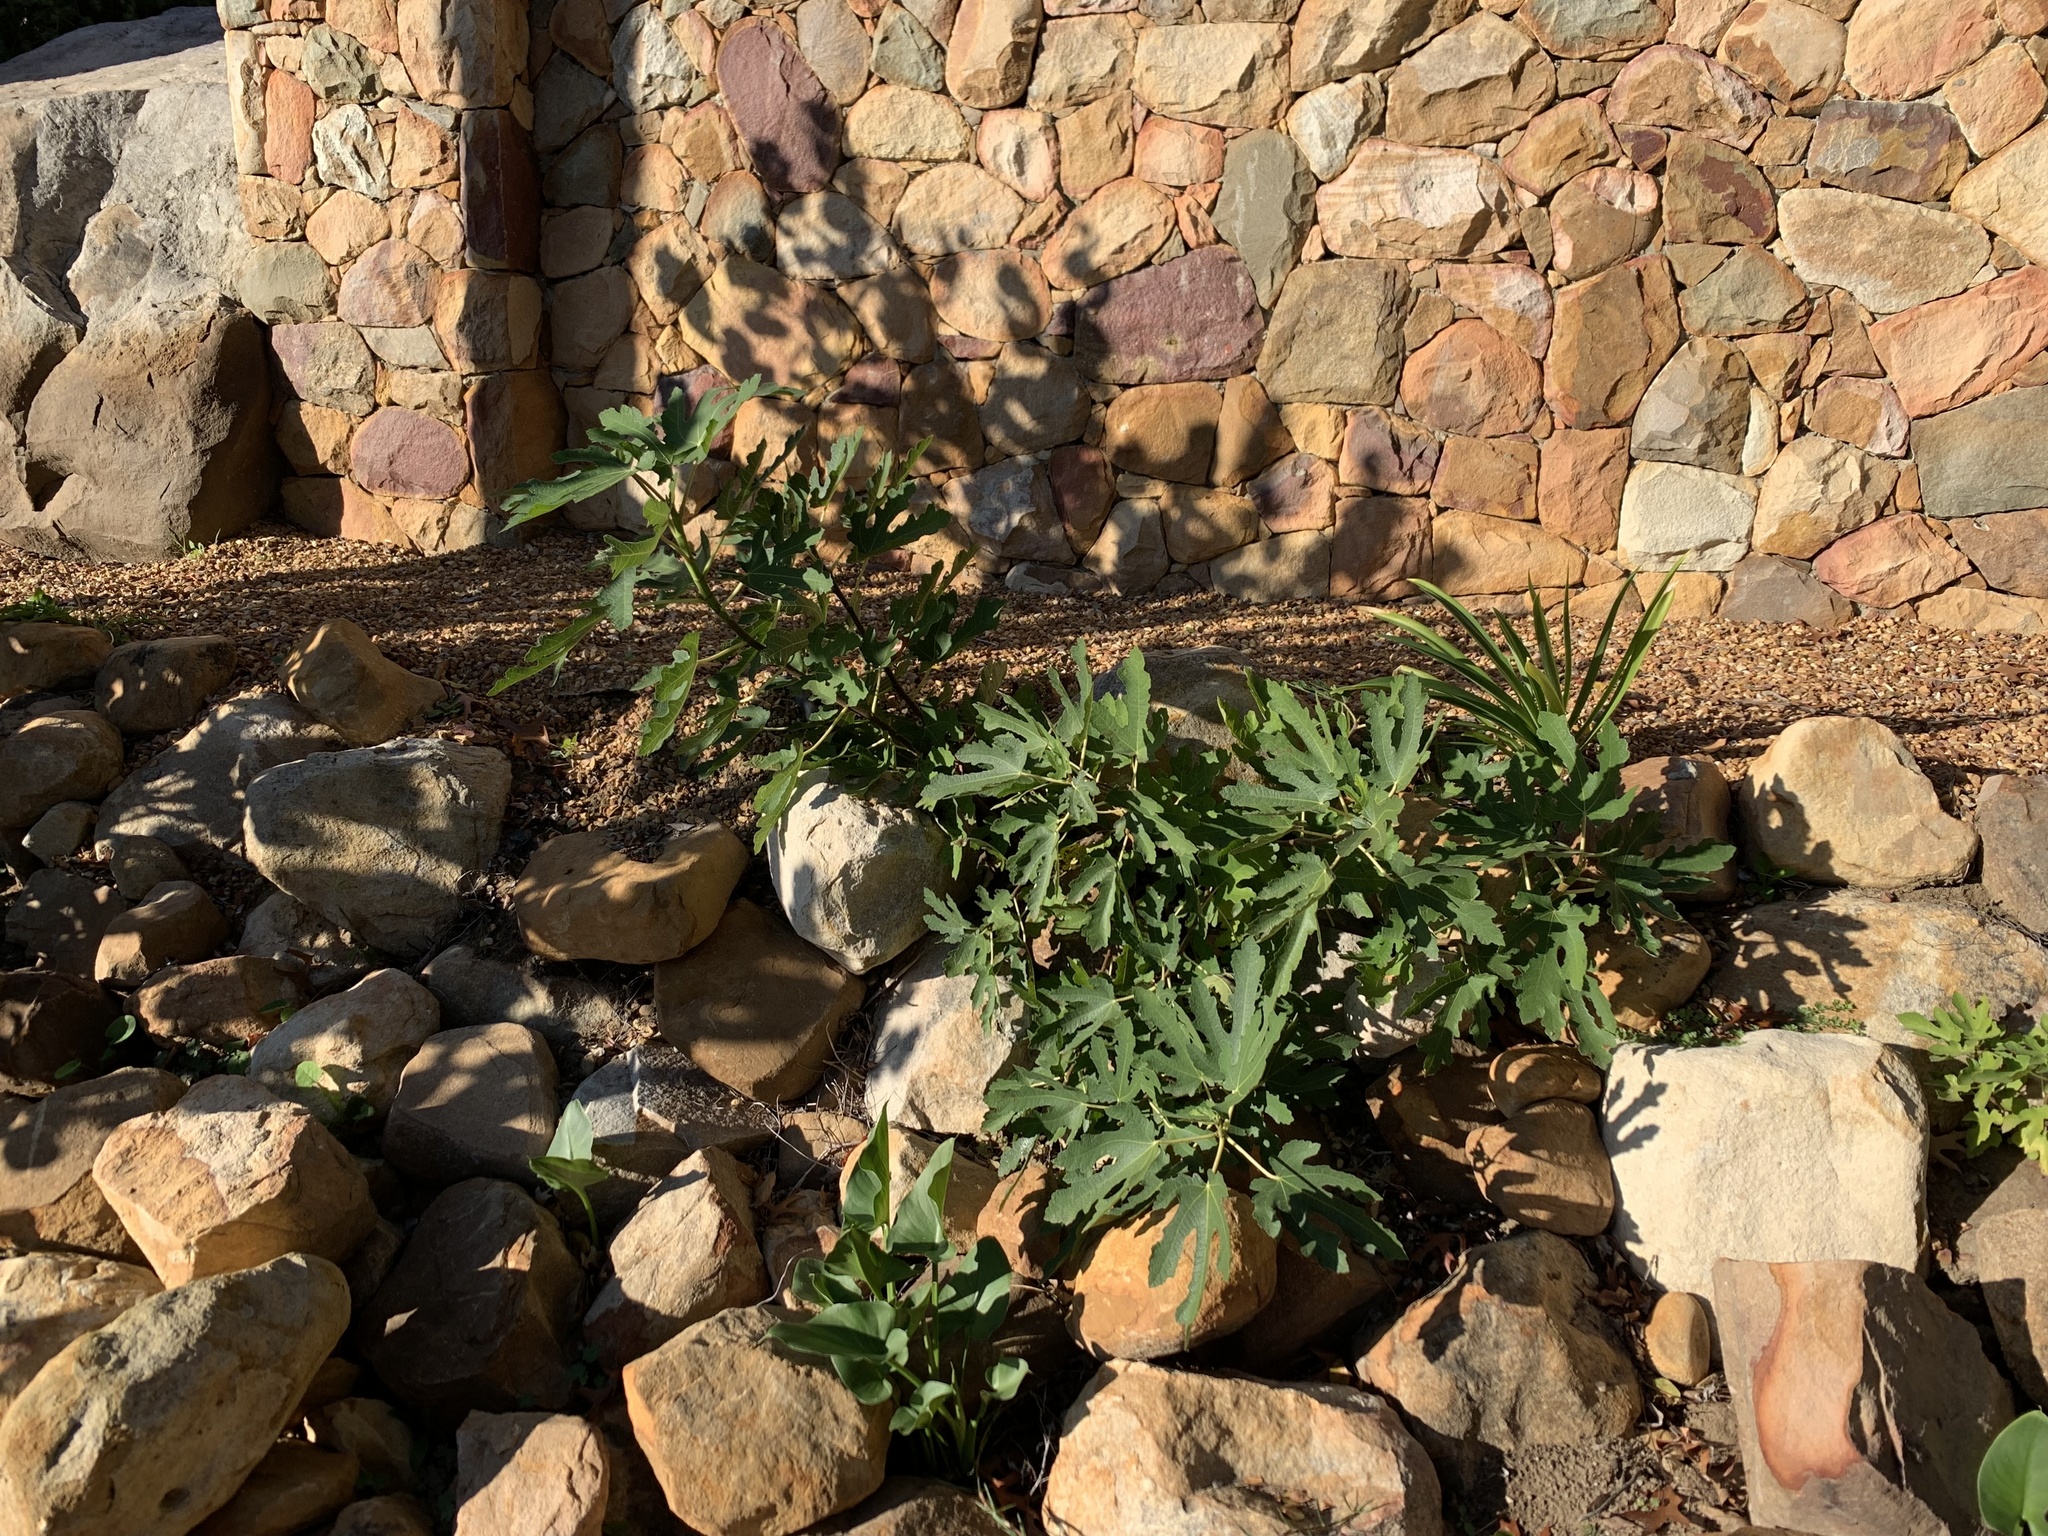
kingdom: Plantae
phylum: Tracheophyta
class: Magnoliopsida
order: Rosales
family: Moraceae
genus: Ficus
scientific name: Ficus carica
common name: Fig
